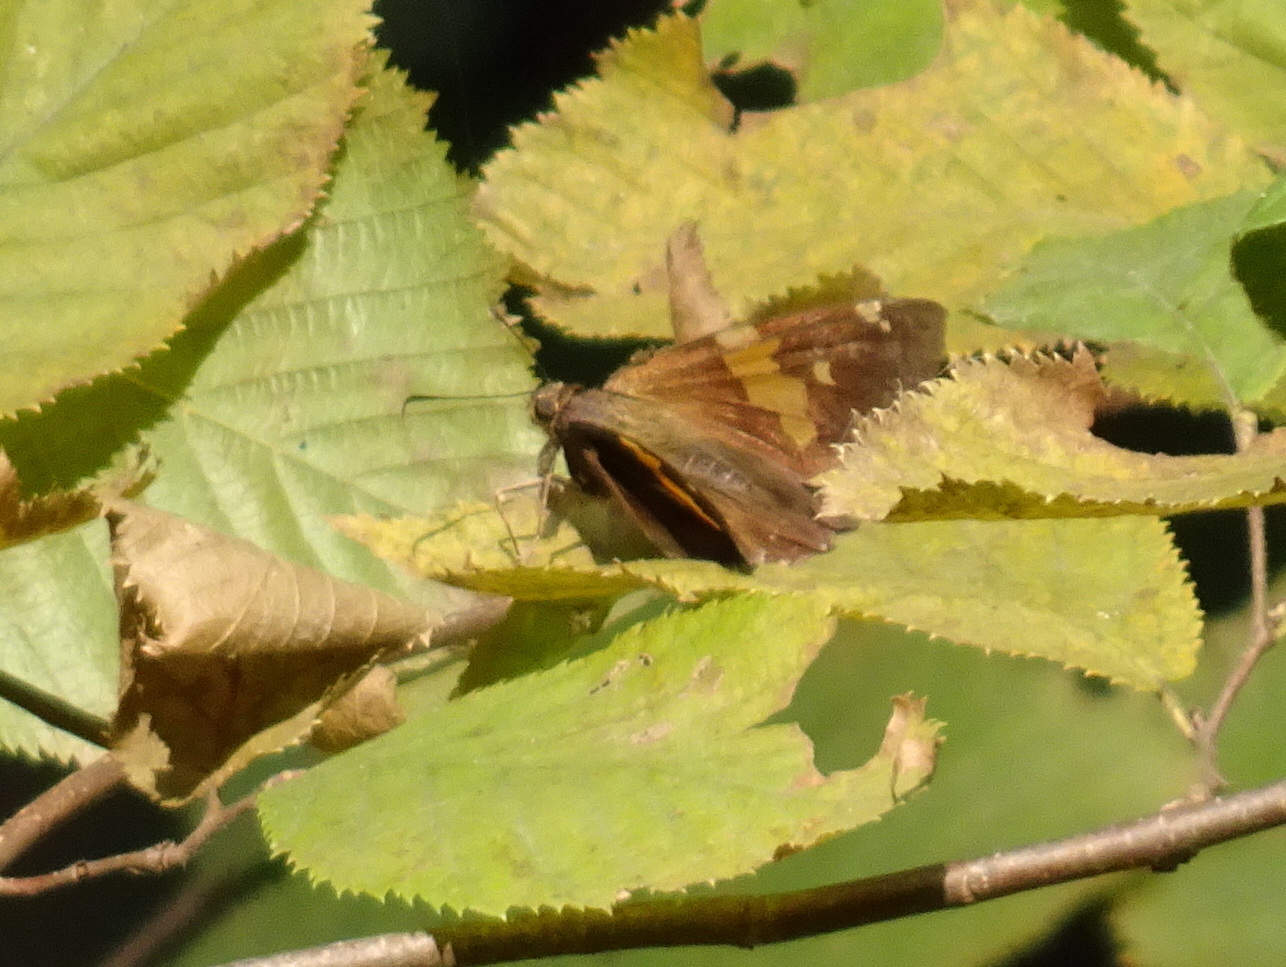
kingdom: Animalia
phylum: Arthropoda
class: Insecta
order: Lepidoptera
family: Hesperiidae
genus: Epargyreus
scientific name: Epargyreus clarus
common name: Silver-spotted skipper
